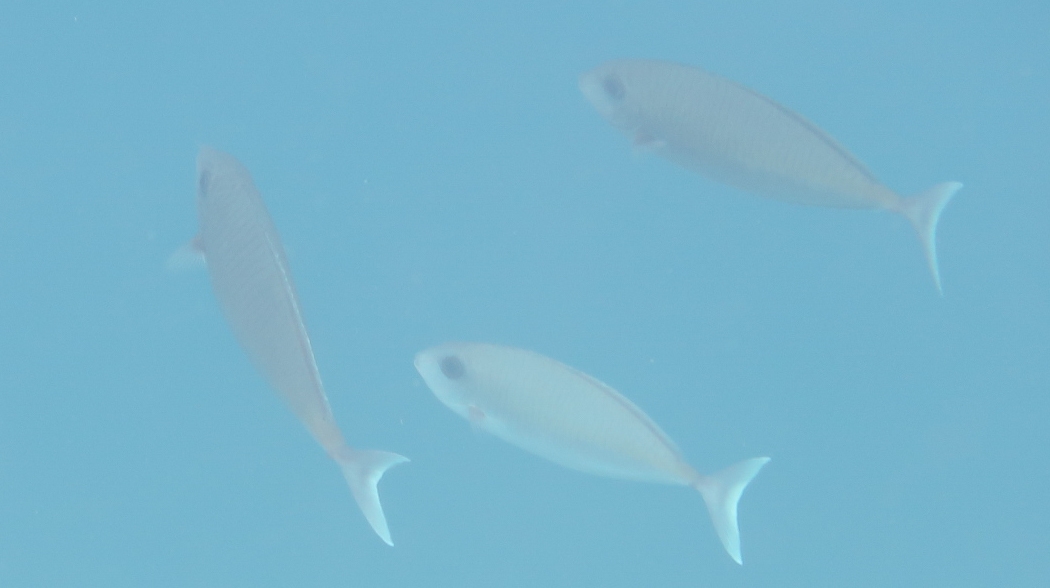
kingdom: Animalia
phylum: Chordata
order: Perciformes
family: Acanthuridae
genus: Naso
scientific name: Naso thynnoides
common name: Oneknife unicornfish
